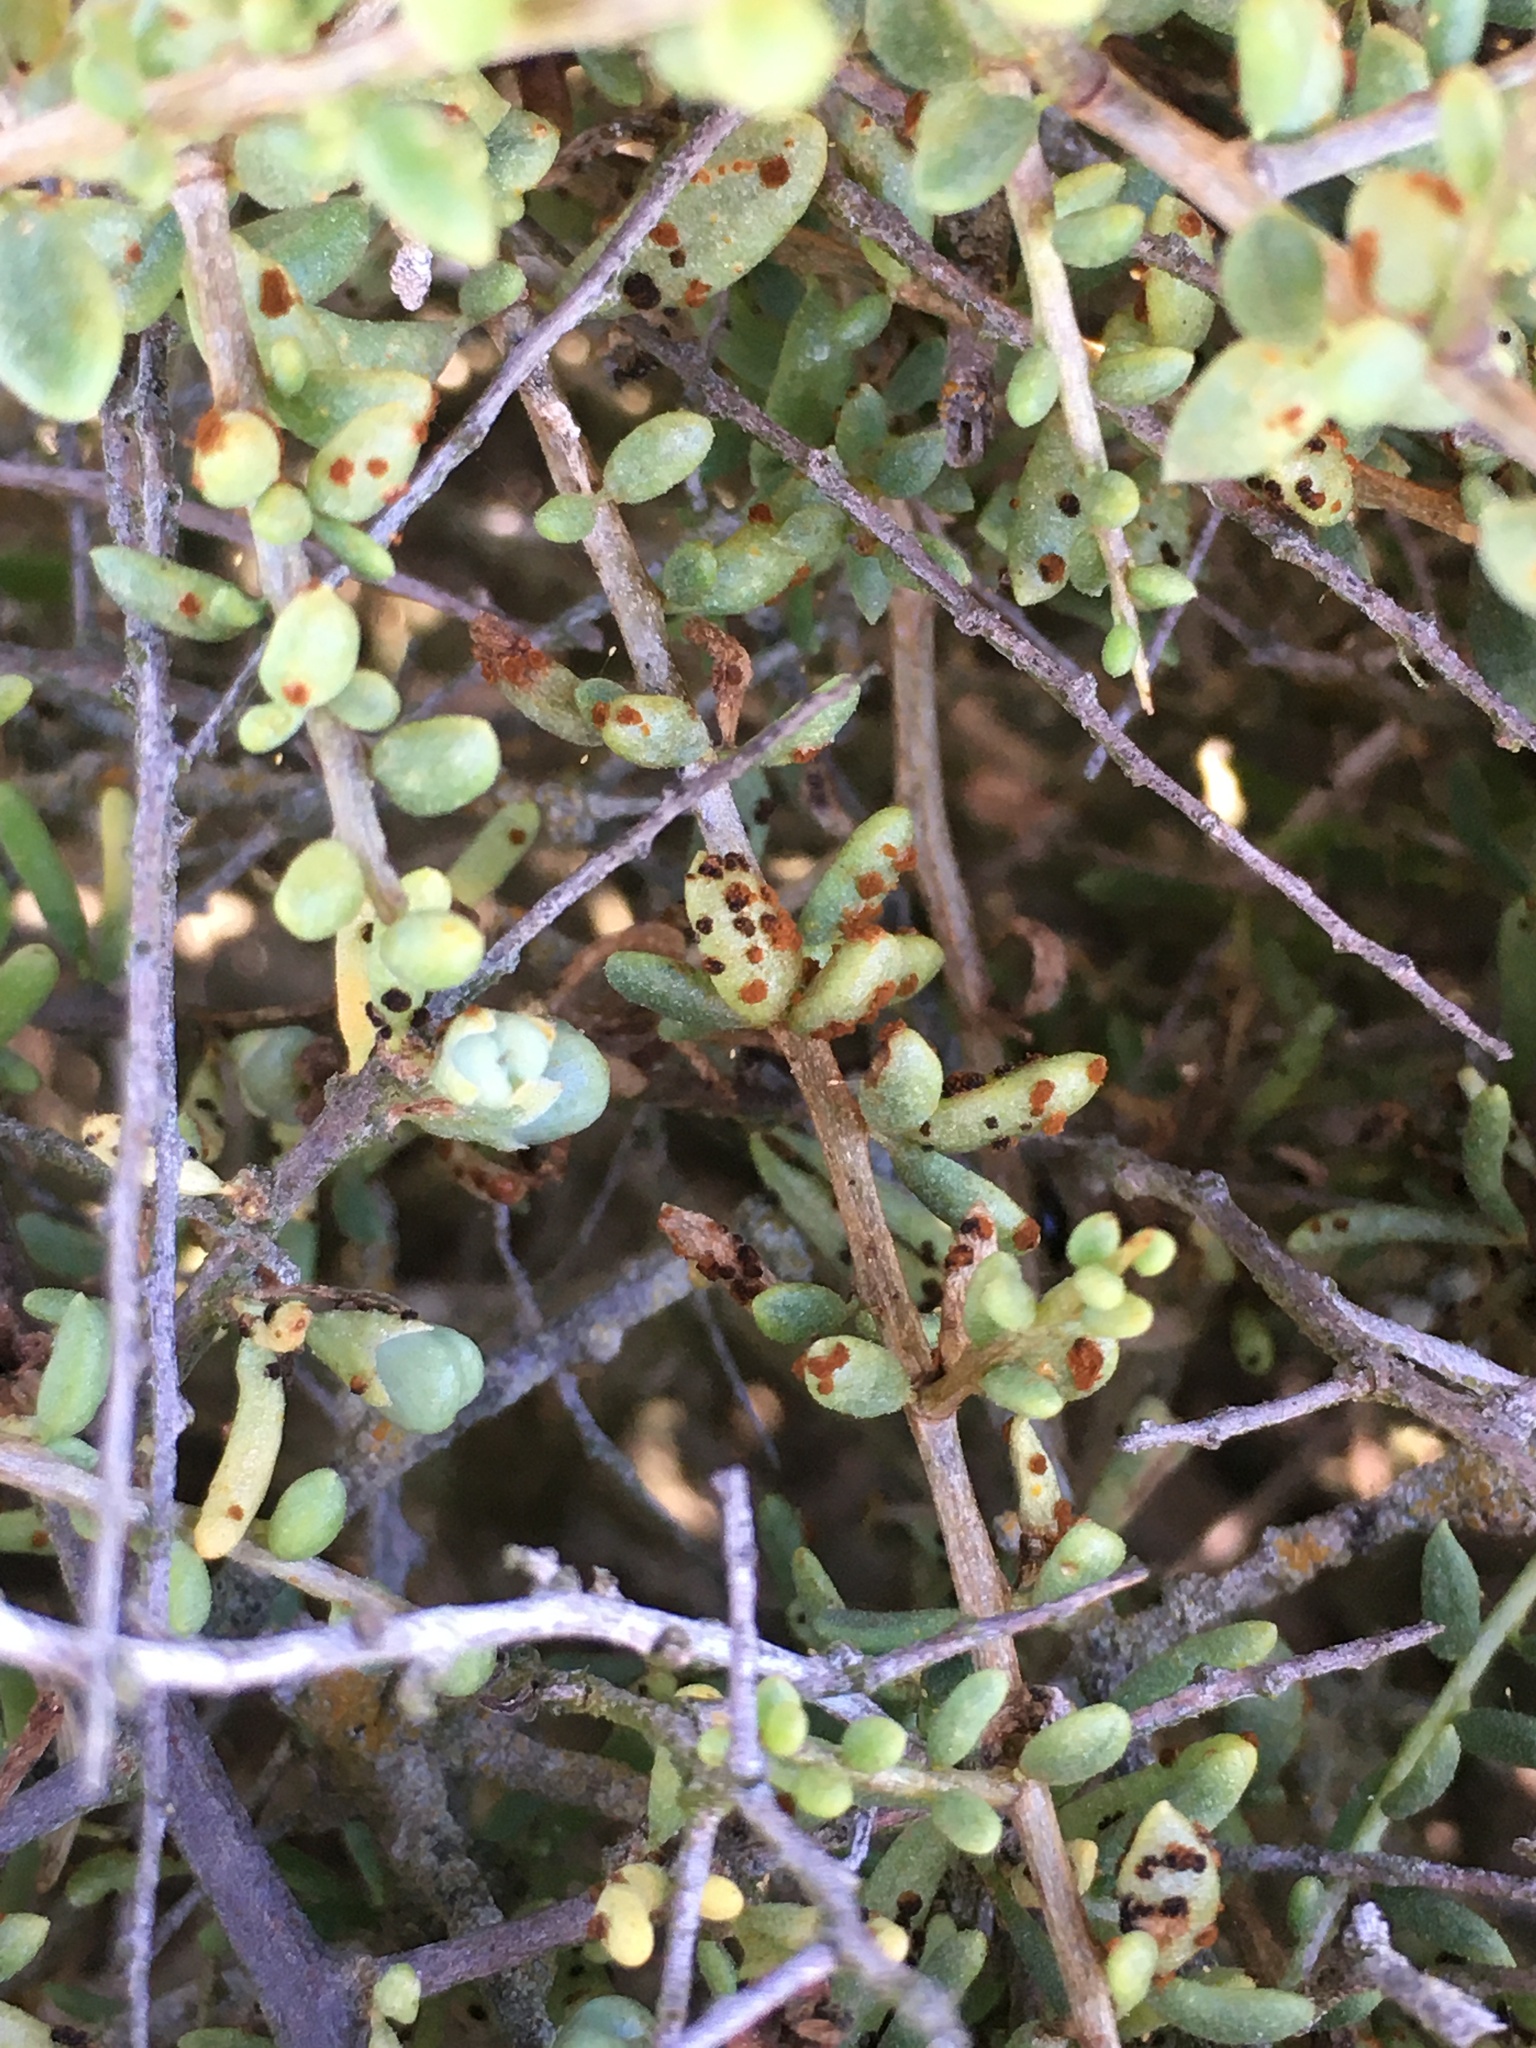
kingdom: Fungi
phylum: Basidiomycota
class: Pucciniomycetes
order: Pucciniales
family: Pucciniaceae
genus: Puccinia
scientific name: Puccinia globosipes
